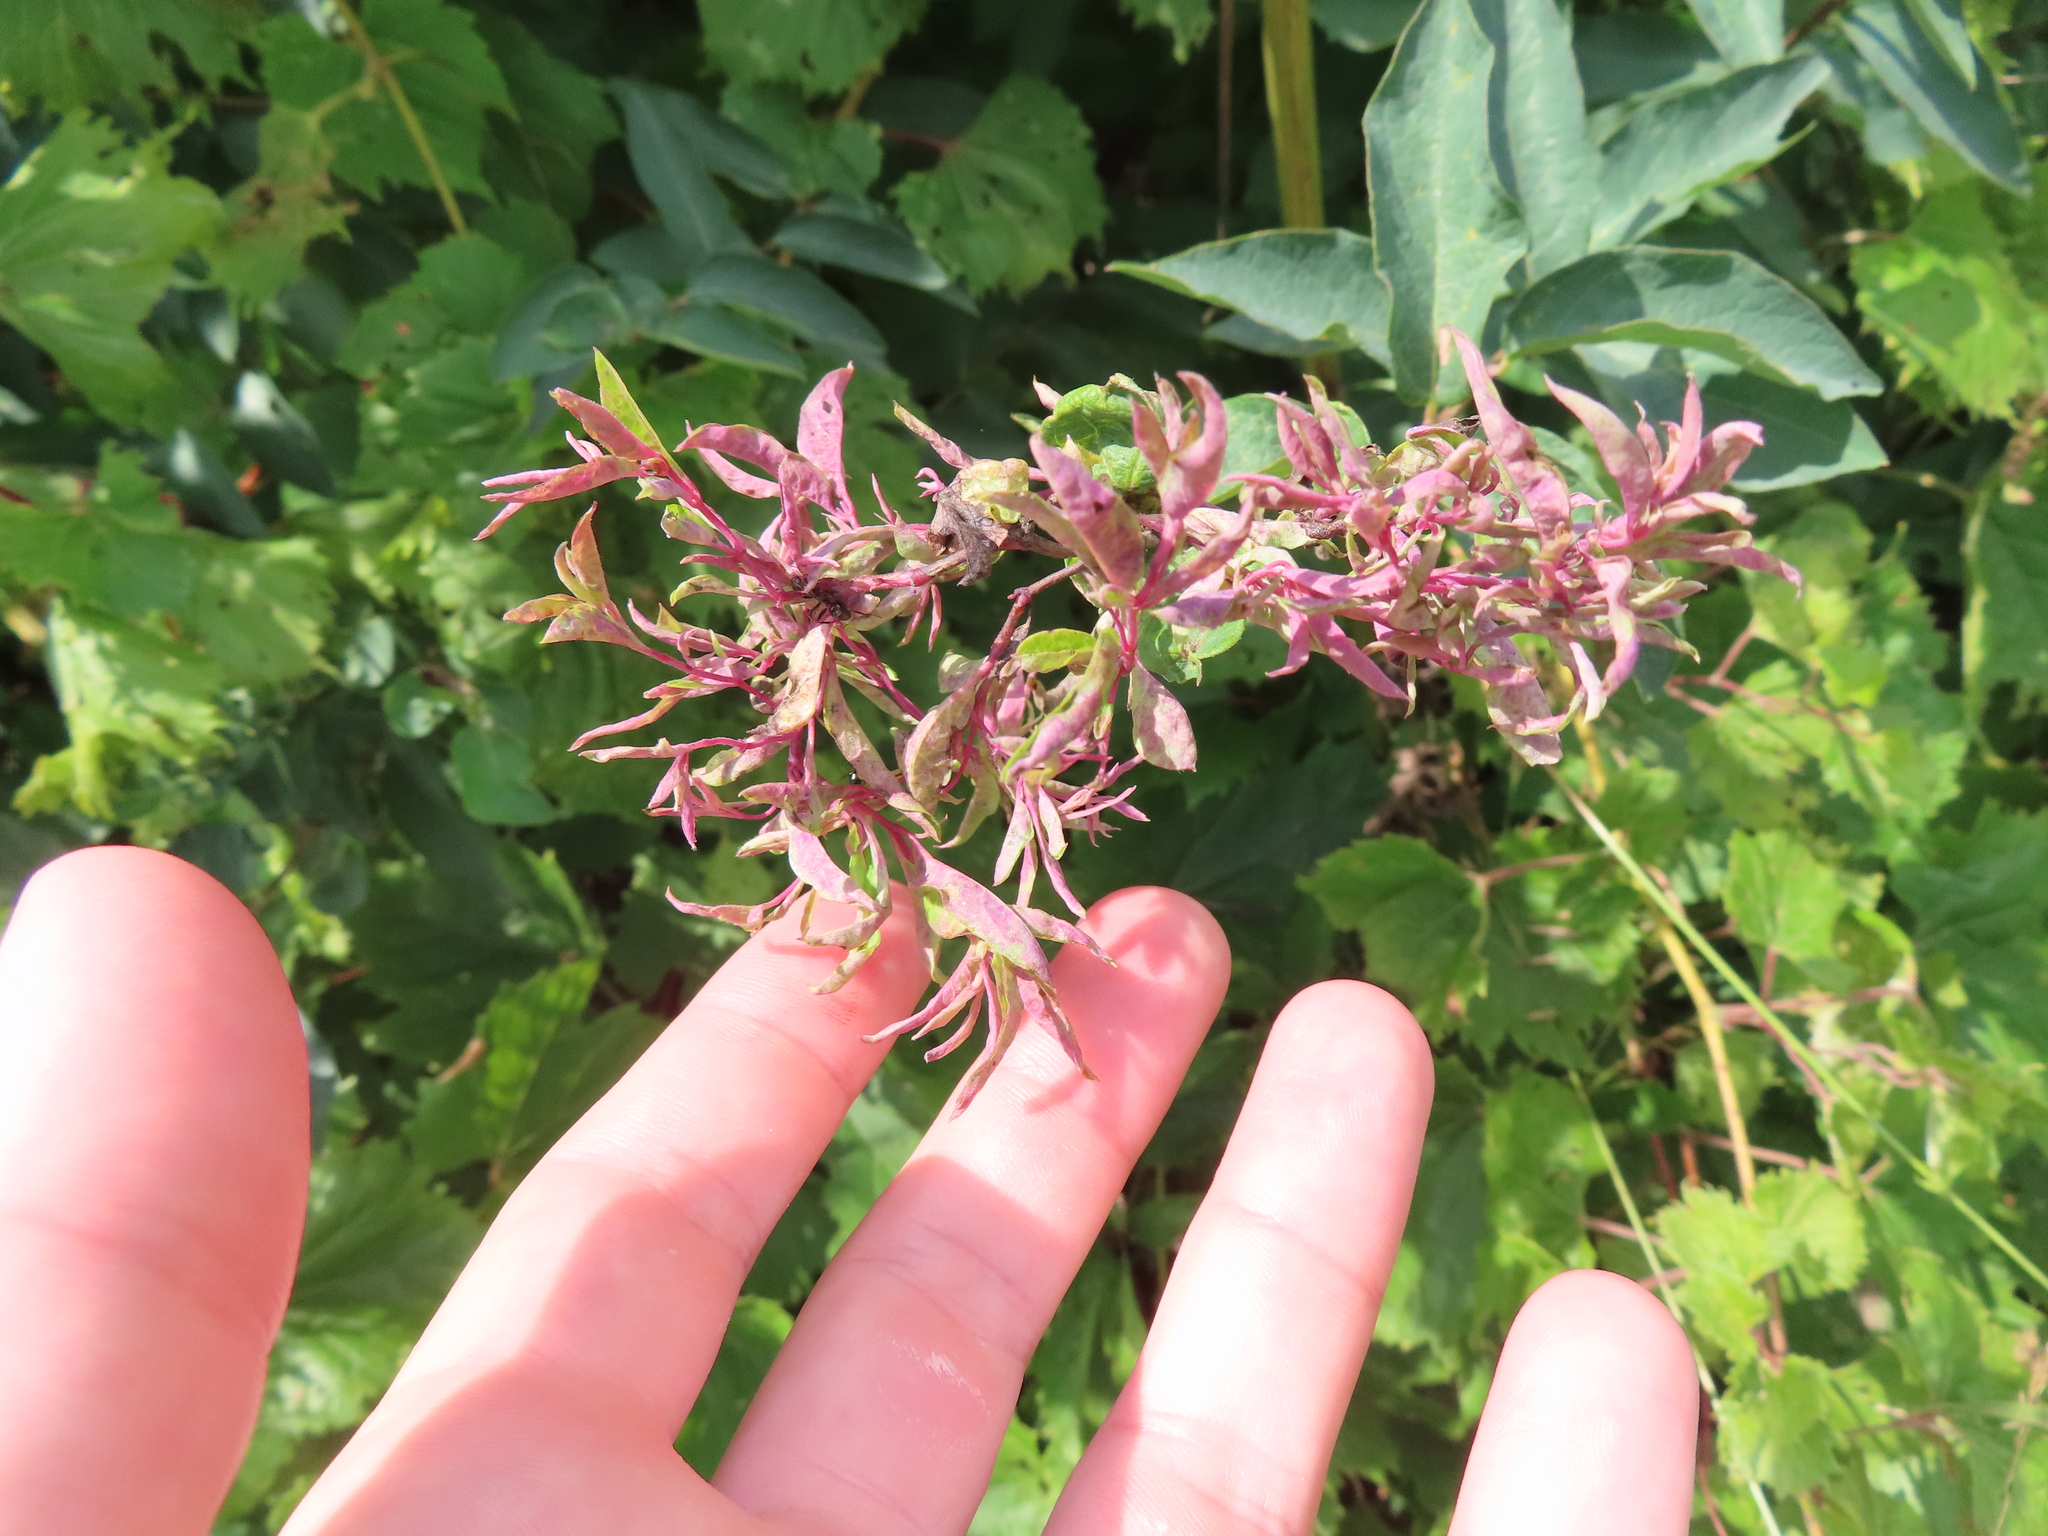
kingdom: Animalia
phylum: Arthropoda
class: Insecta
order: Hemiptera
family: Aphididae
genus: Hyadaphis
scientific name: Hyadaphis tataricae
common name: Honeysuckle witches' broom aphid
